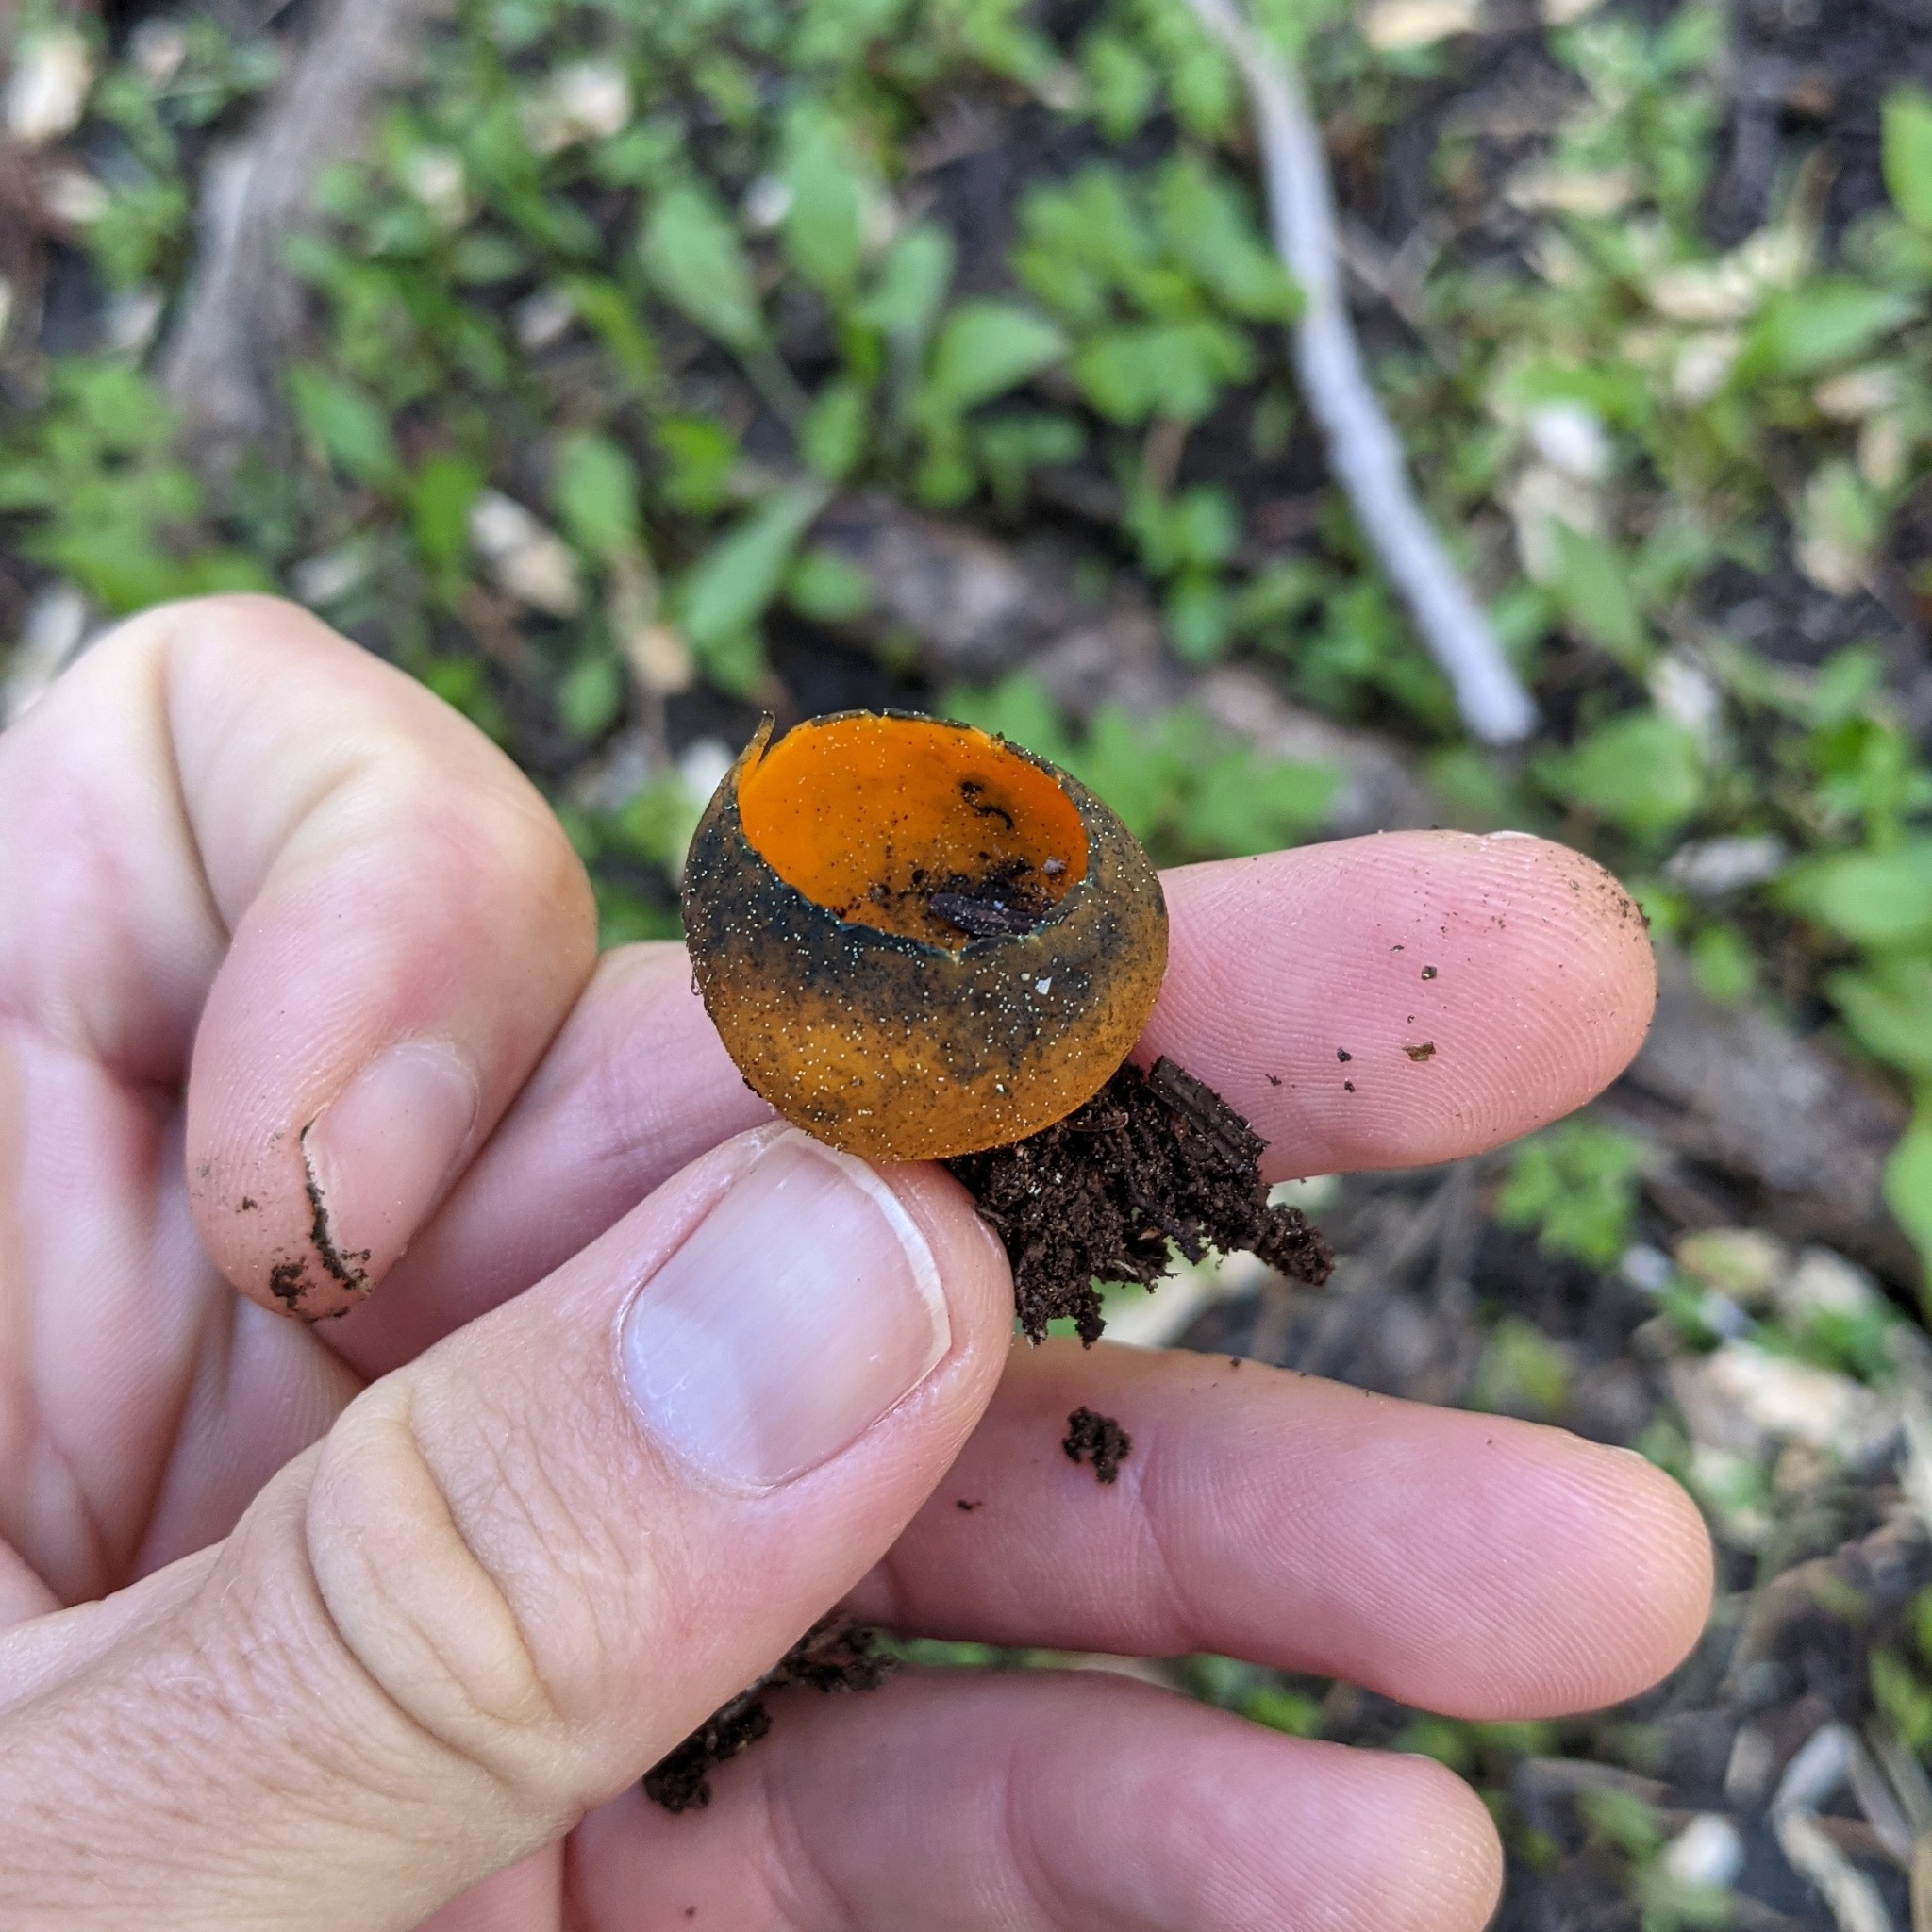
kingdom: Fungi
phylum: Ascomycota
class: Pezizomycetes
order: Pezizales
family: Caloscyphaceae
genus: Caloscypha
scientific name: Caloscypha fulgens
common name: Golden cup
